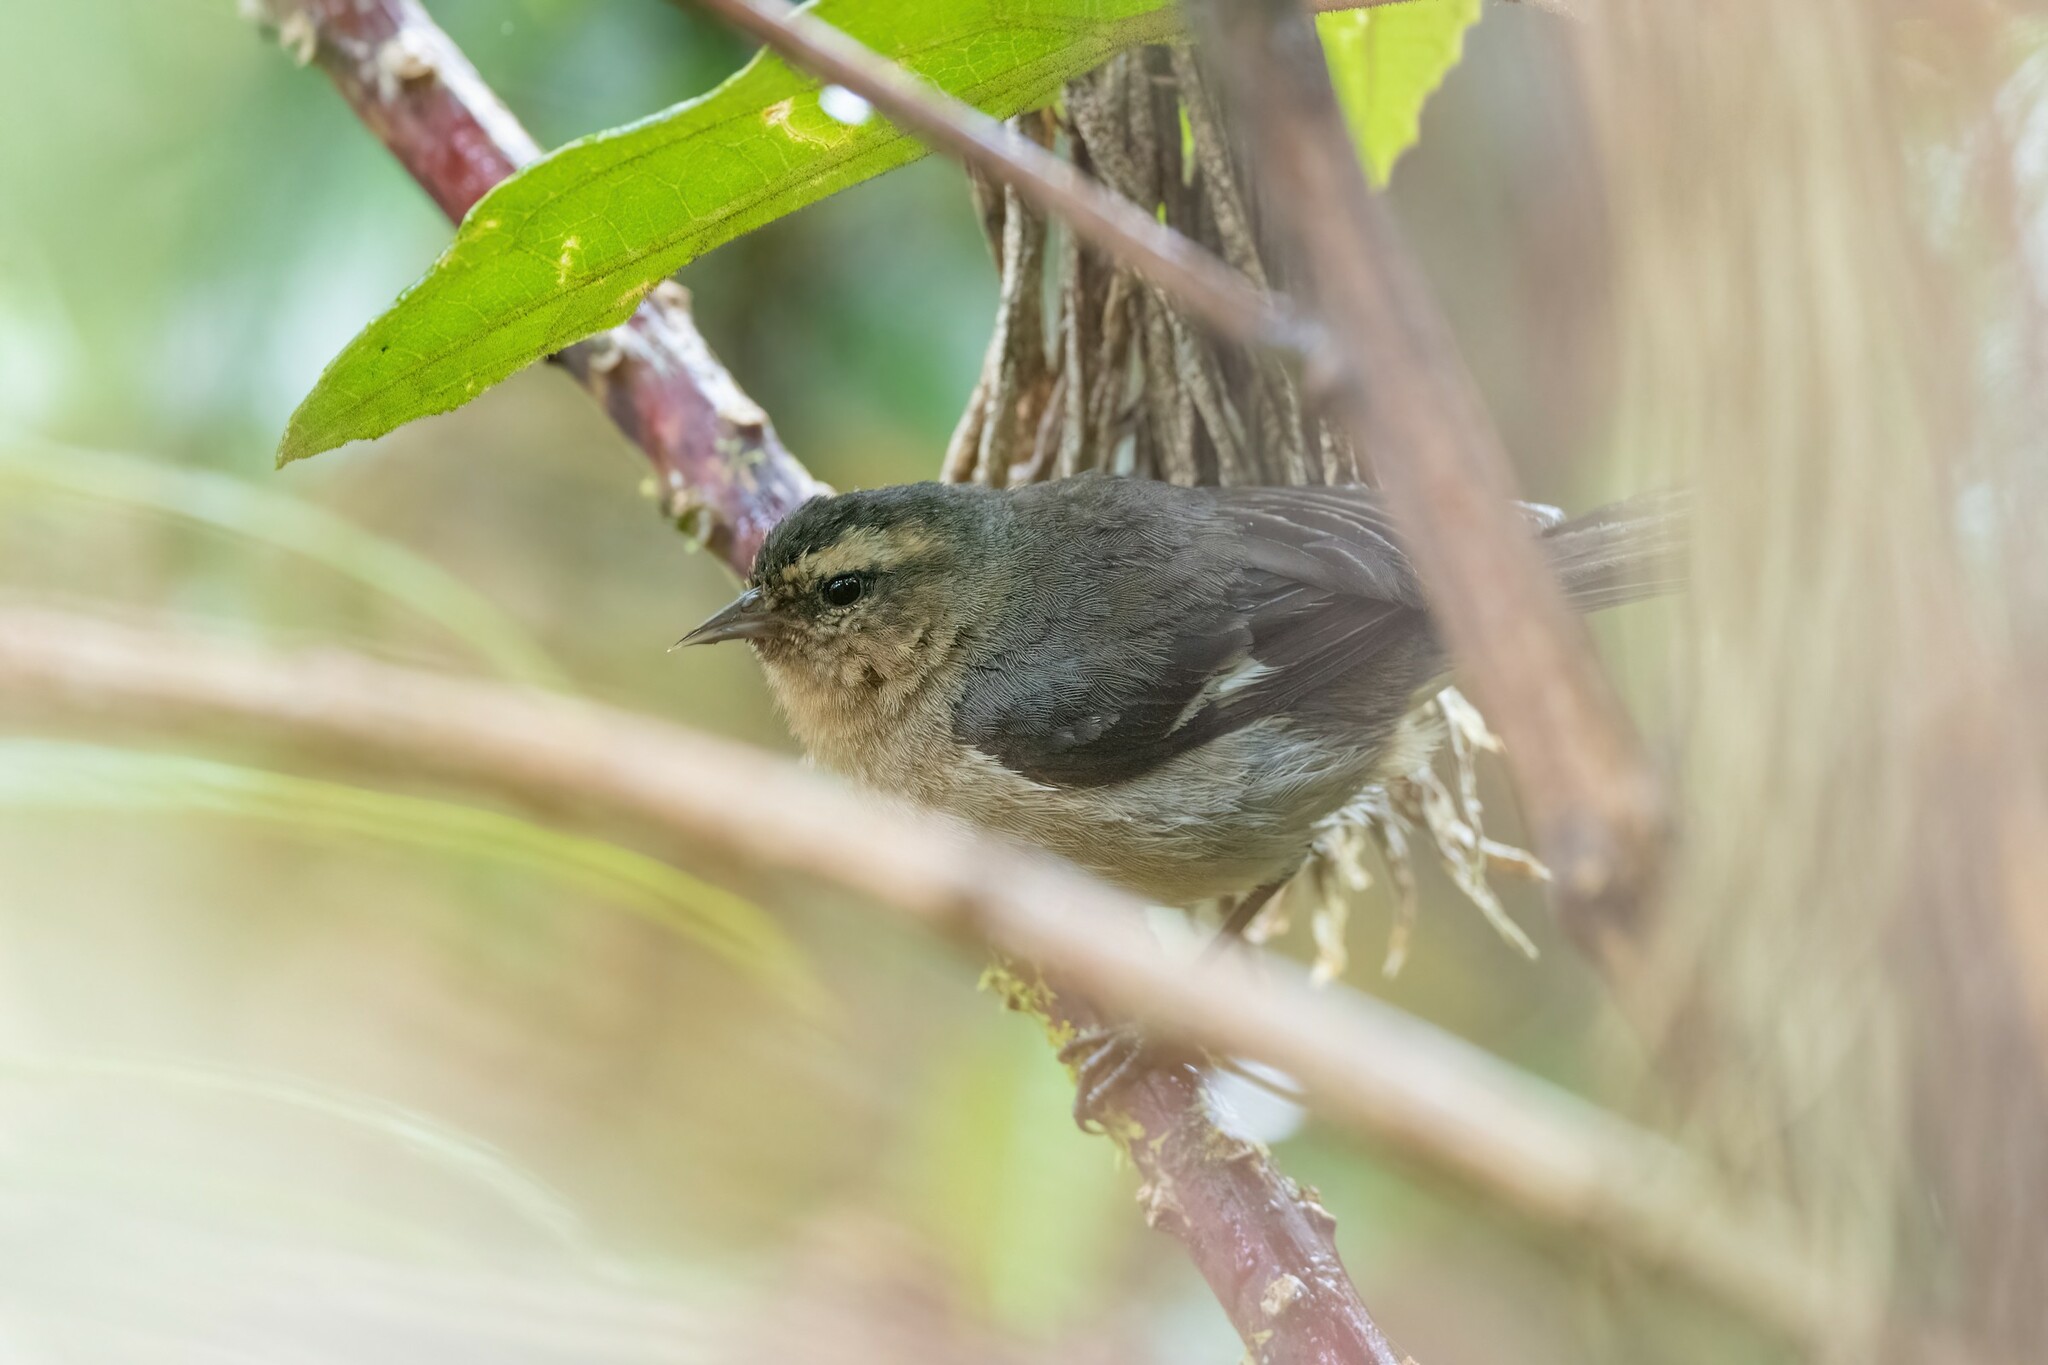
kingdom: Animalia
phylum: Chordata
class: Aves
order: Passeriformes
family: Thraupidae
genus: Conirostrum
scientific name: Conirostrum cinereum
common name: Cinereous conebill
